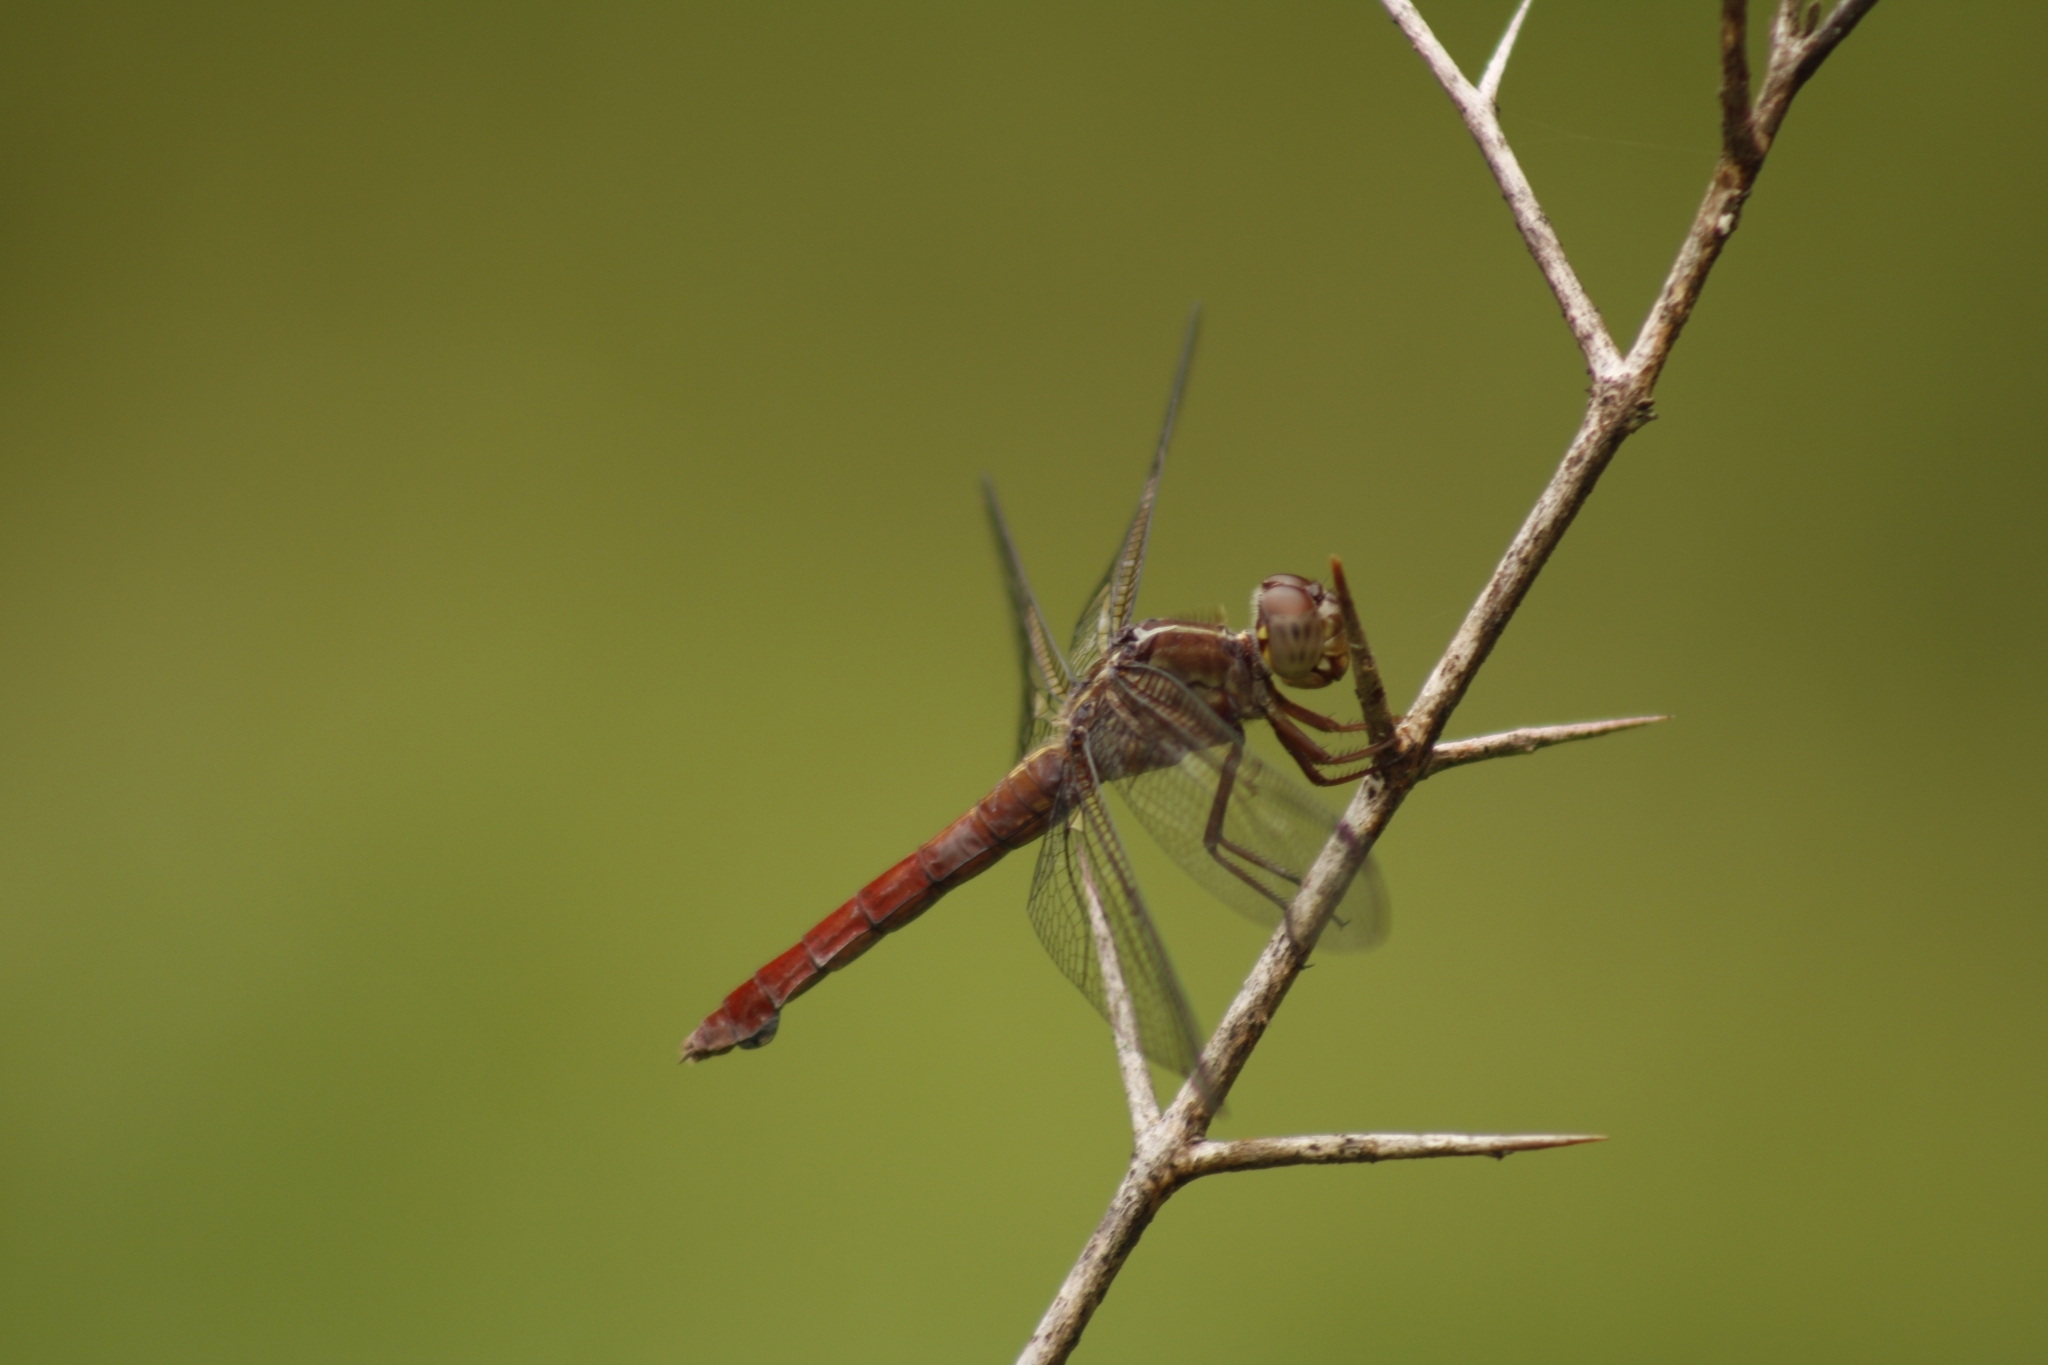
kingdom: Animalia
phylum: Arthropoda
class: Insecta
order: Odonata
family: Libellulidae
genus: Orthemis
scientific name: Orthemis discolor
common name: Carmine skimmer
